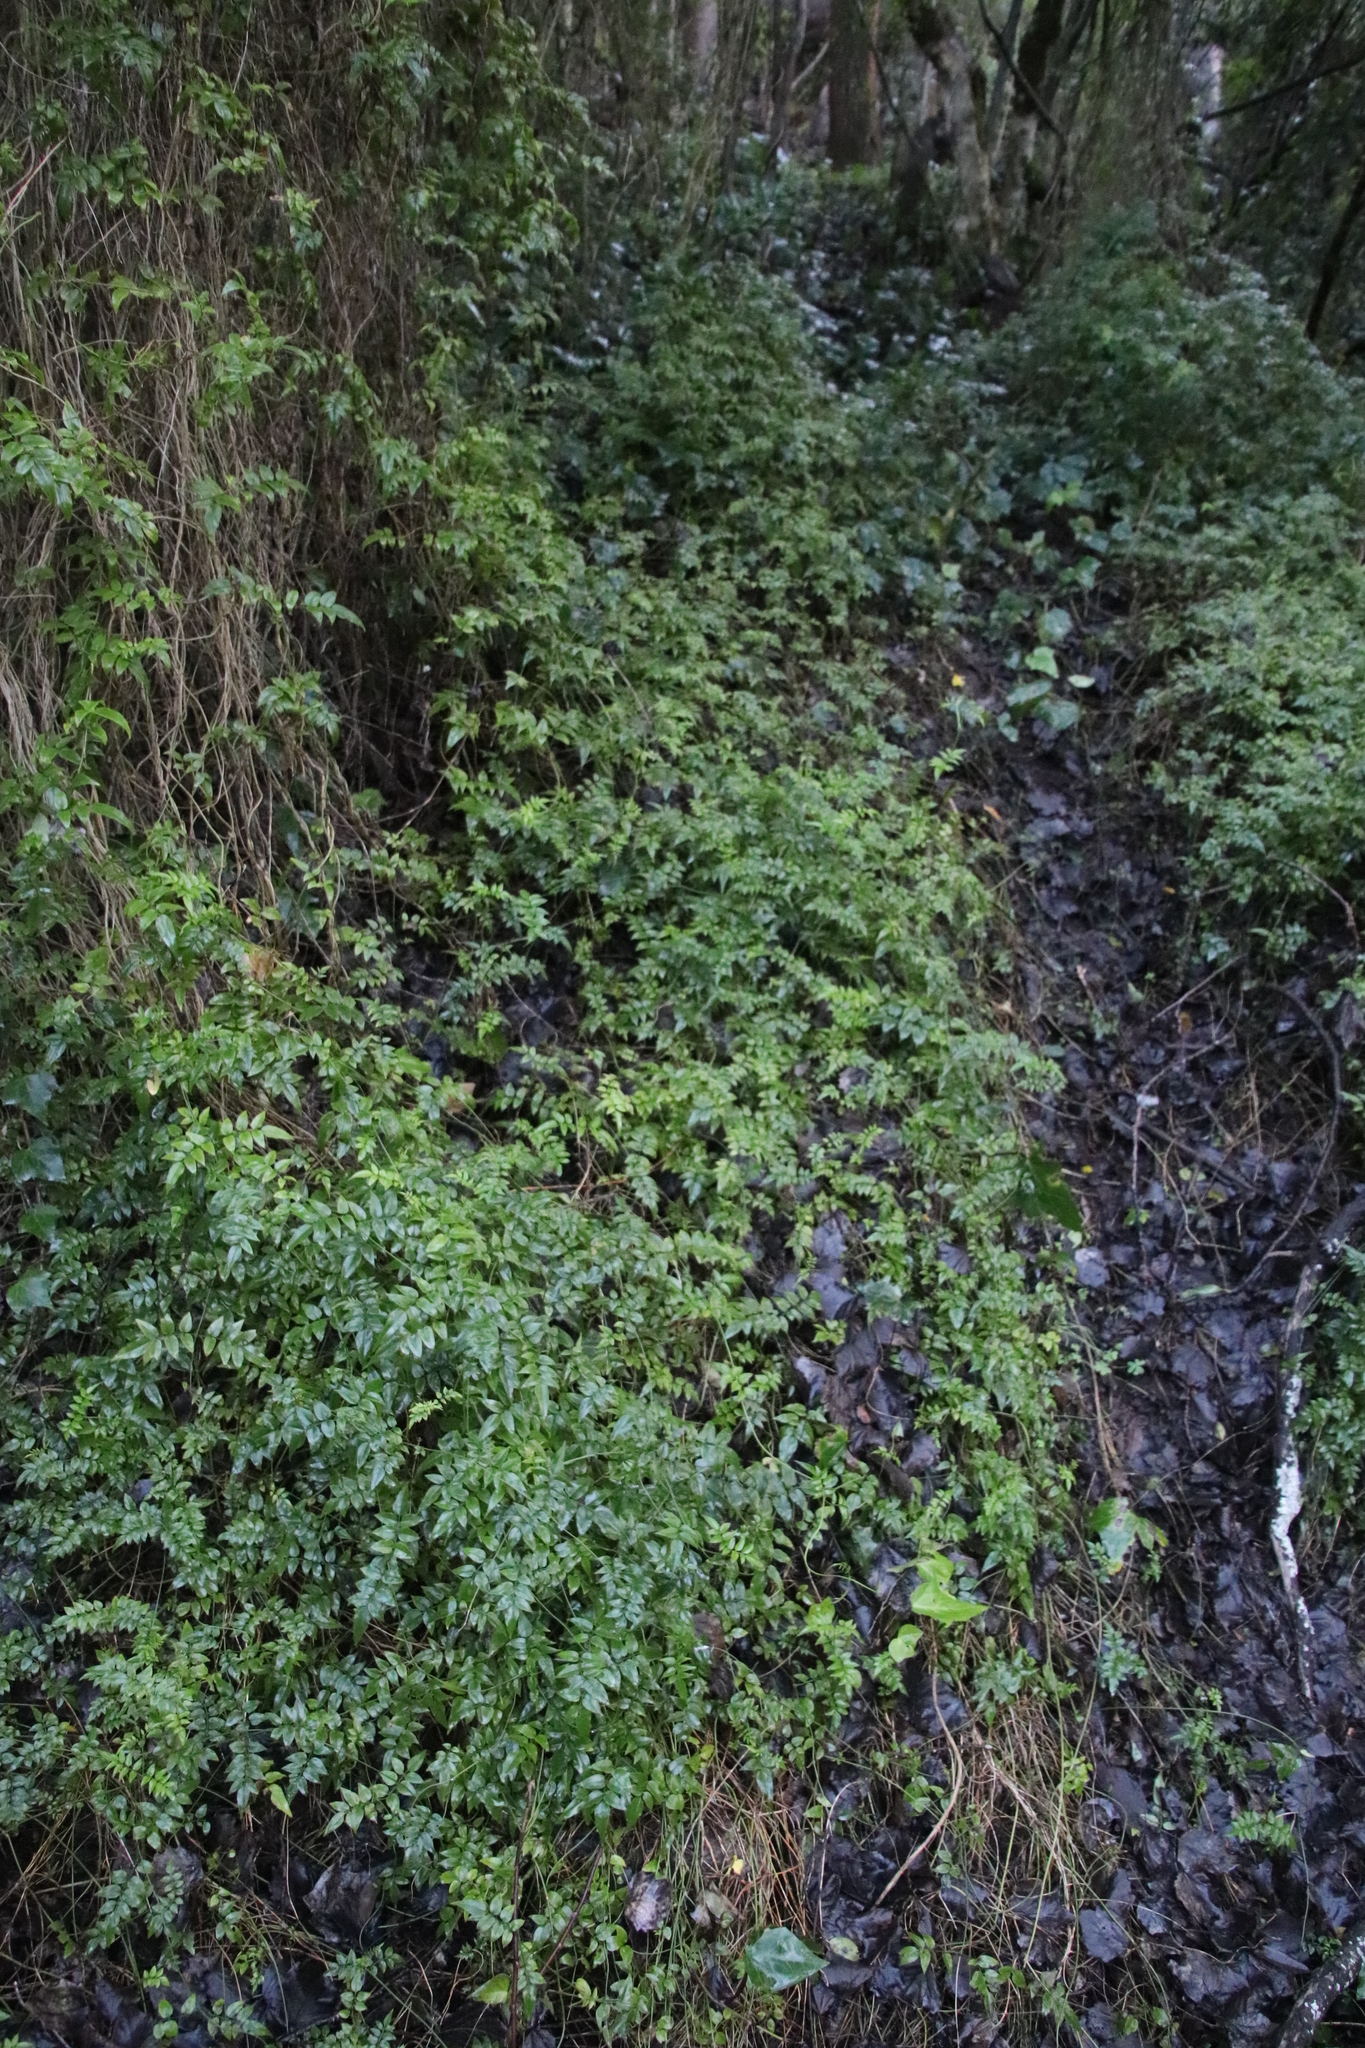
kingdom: Plantae
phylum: Tracheophyta
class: Magnoliopsida
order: Lamiales
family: Oleaceae
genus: Jasminum
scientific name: Jasminum polyanthum
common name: Pink jasmine
